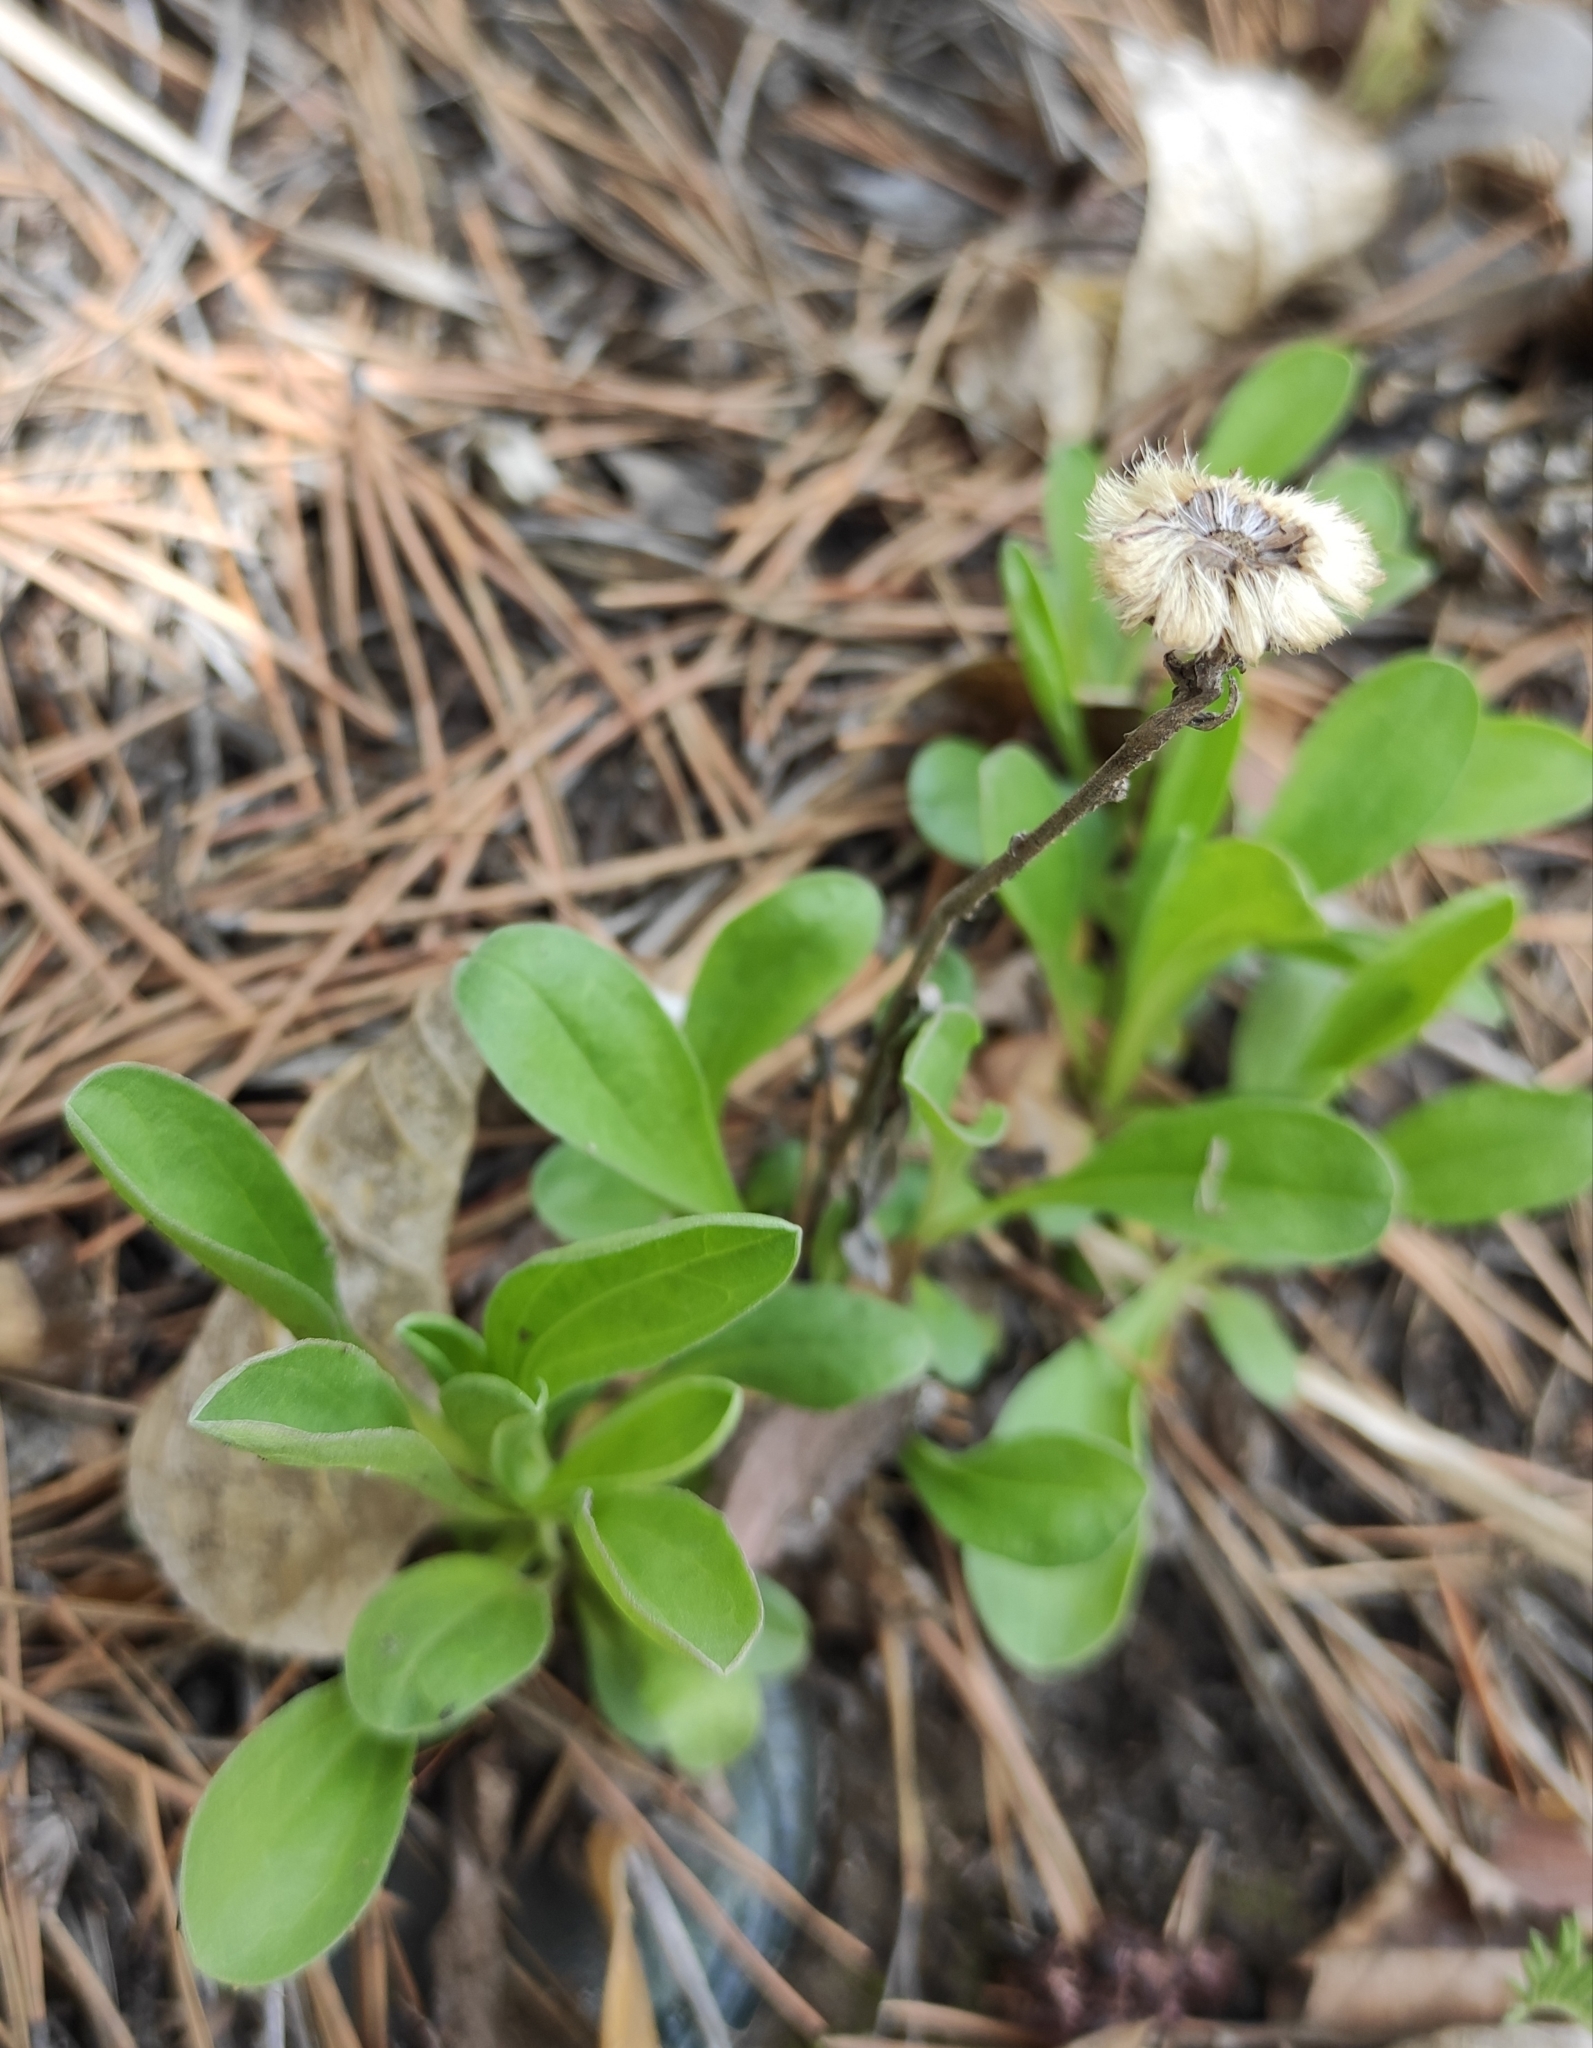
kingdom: Plantae
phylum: Tracheophyta
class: Magnoliopsida
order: Asterales
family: Asteraceae
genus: Aster
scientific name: Aster alpinus
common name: Alpine aster
